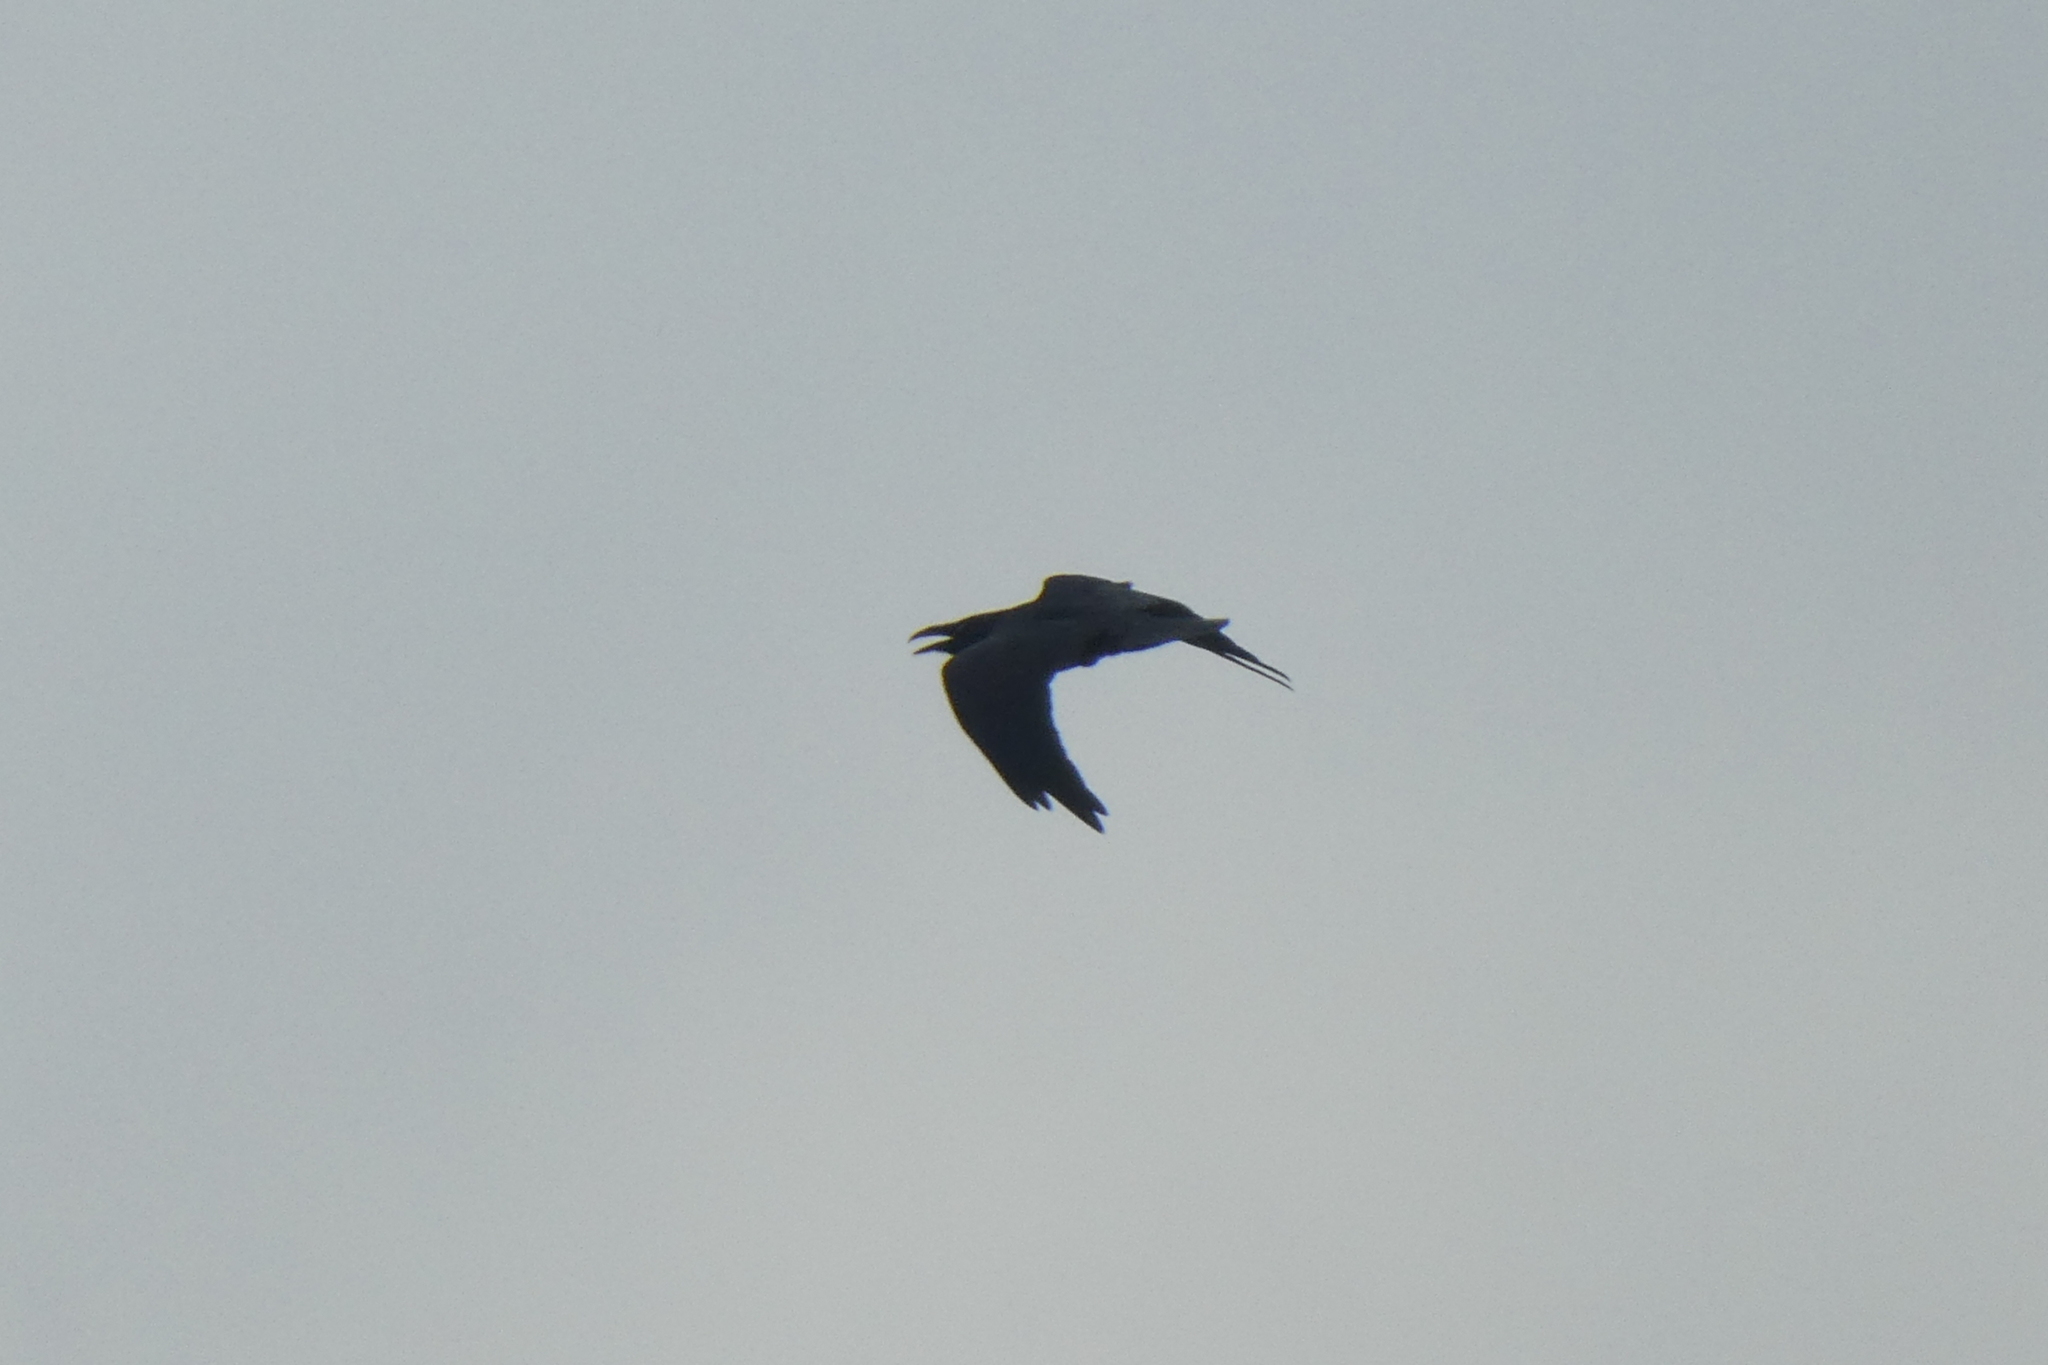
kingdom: Animalia
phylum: Chordata
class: Aves
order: Passeriformes
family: Corvidae
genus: Corvus
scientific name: Corvus corax
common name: Common raven
